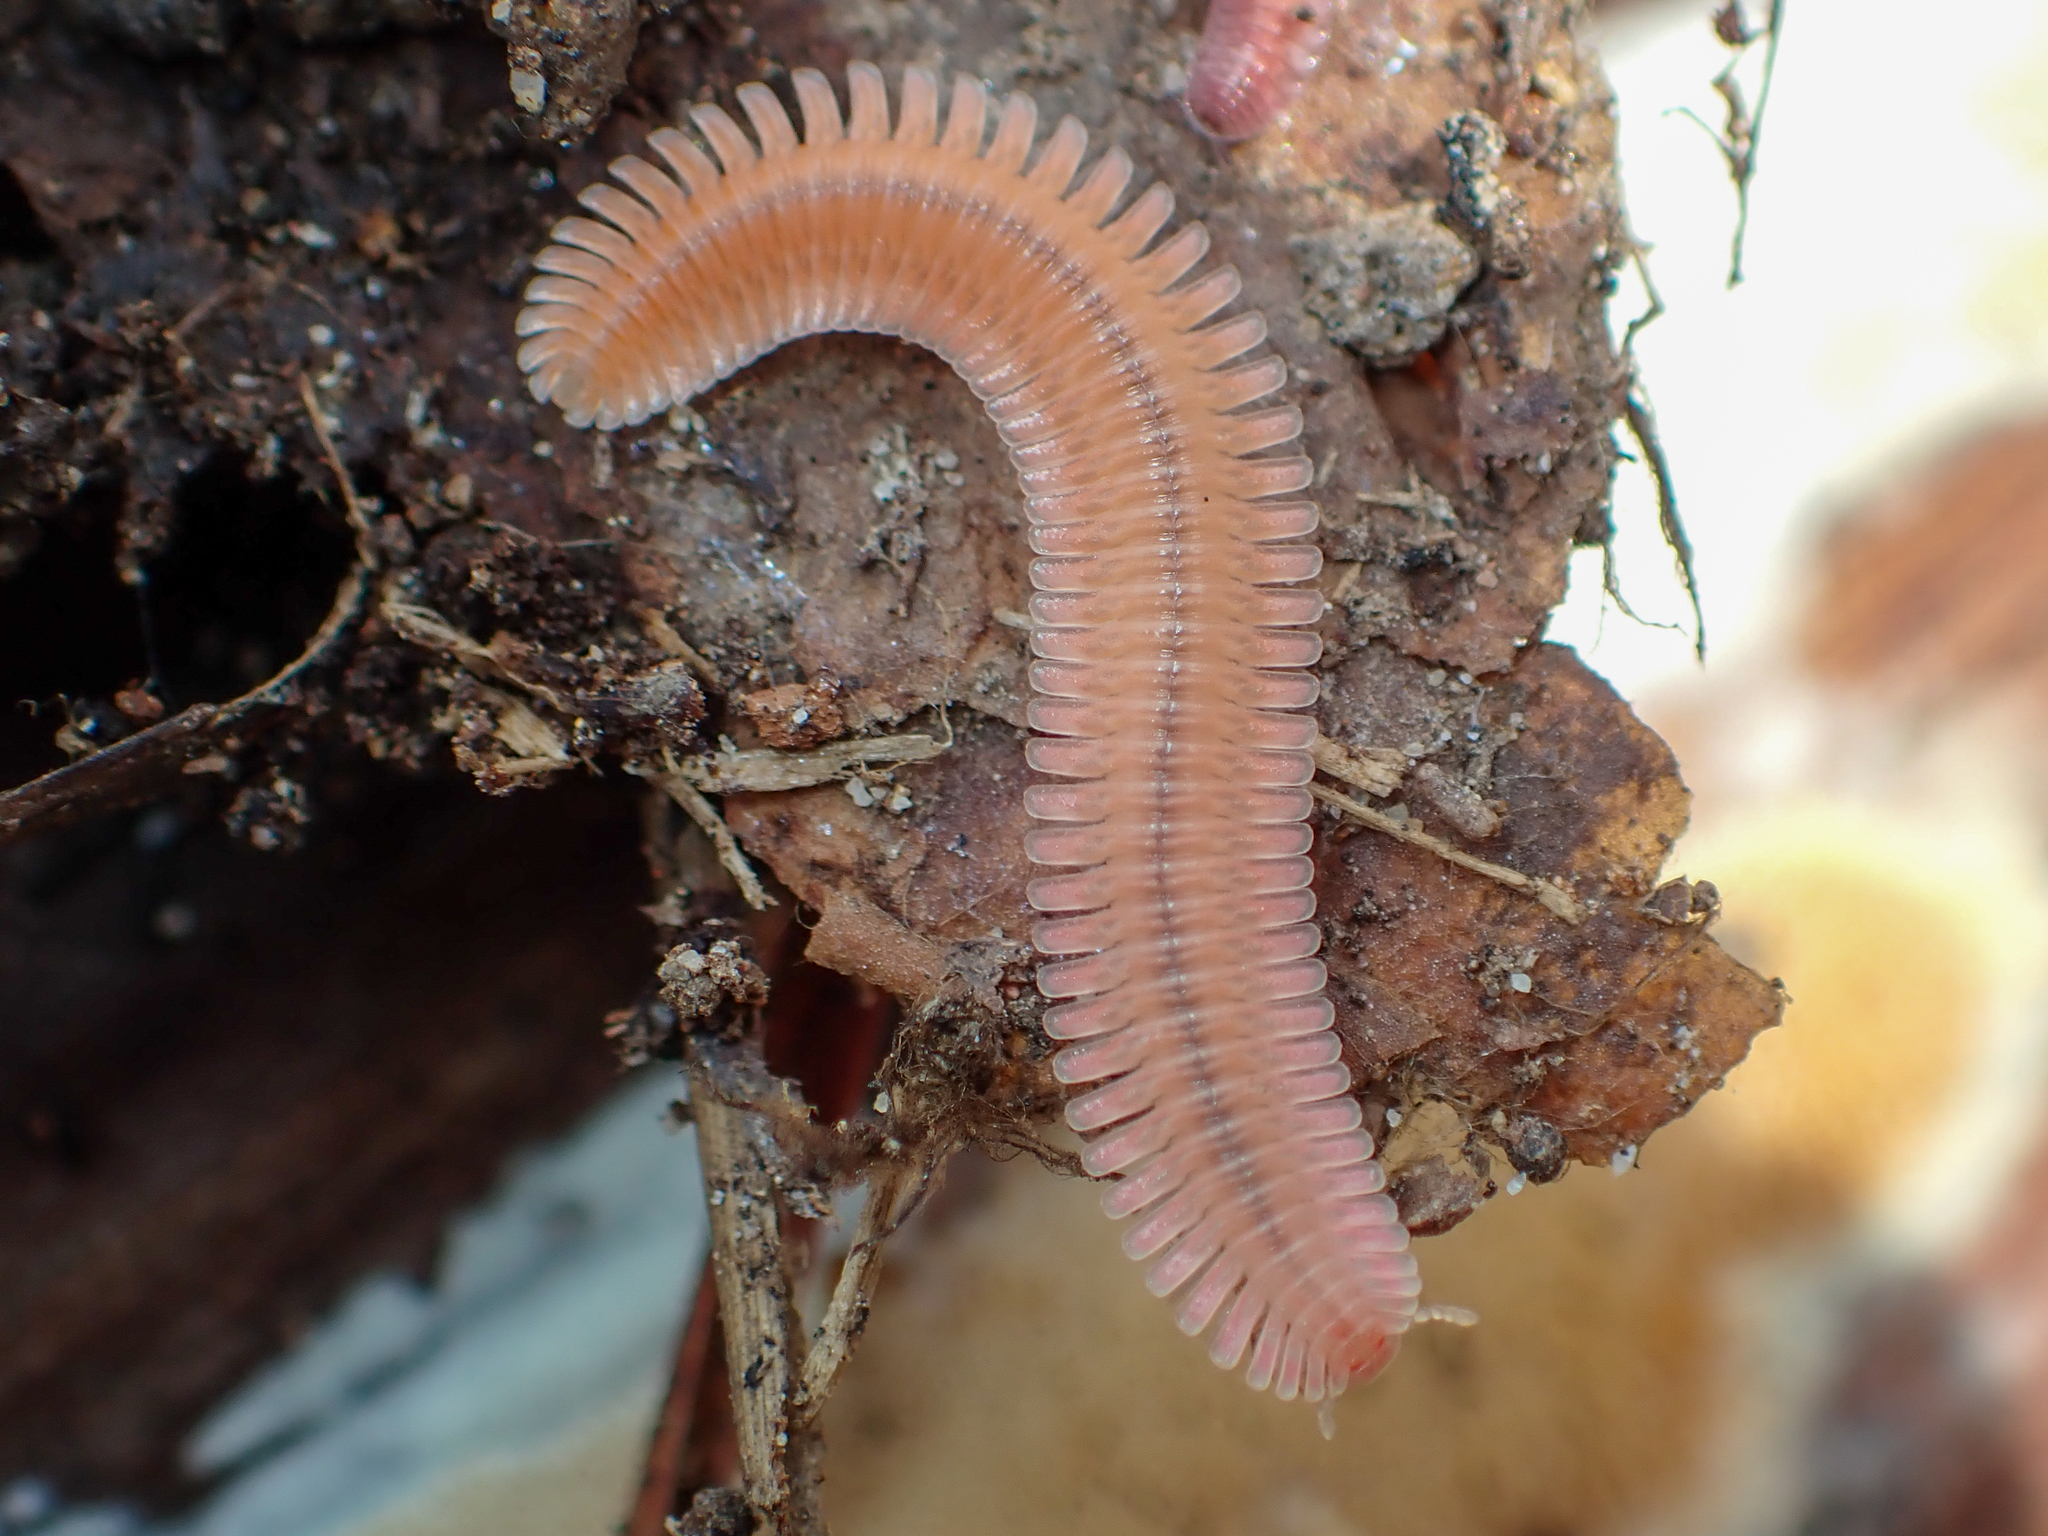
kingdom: Animalia
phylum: Arthropoda
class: Diplopoda
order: Platydesmida
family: Andrognathidae
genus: Brachycybe
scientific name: Brachycybe lecontii
